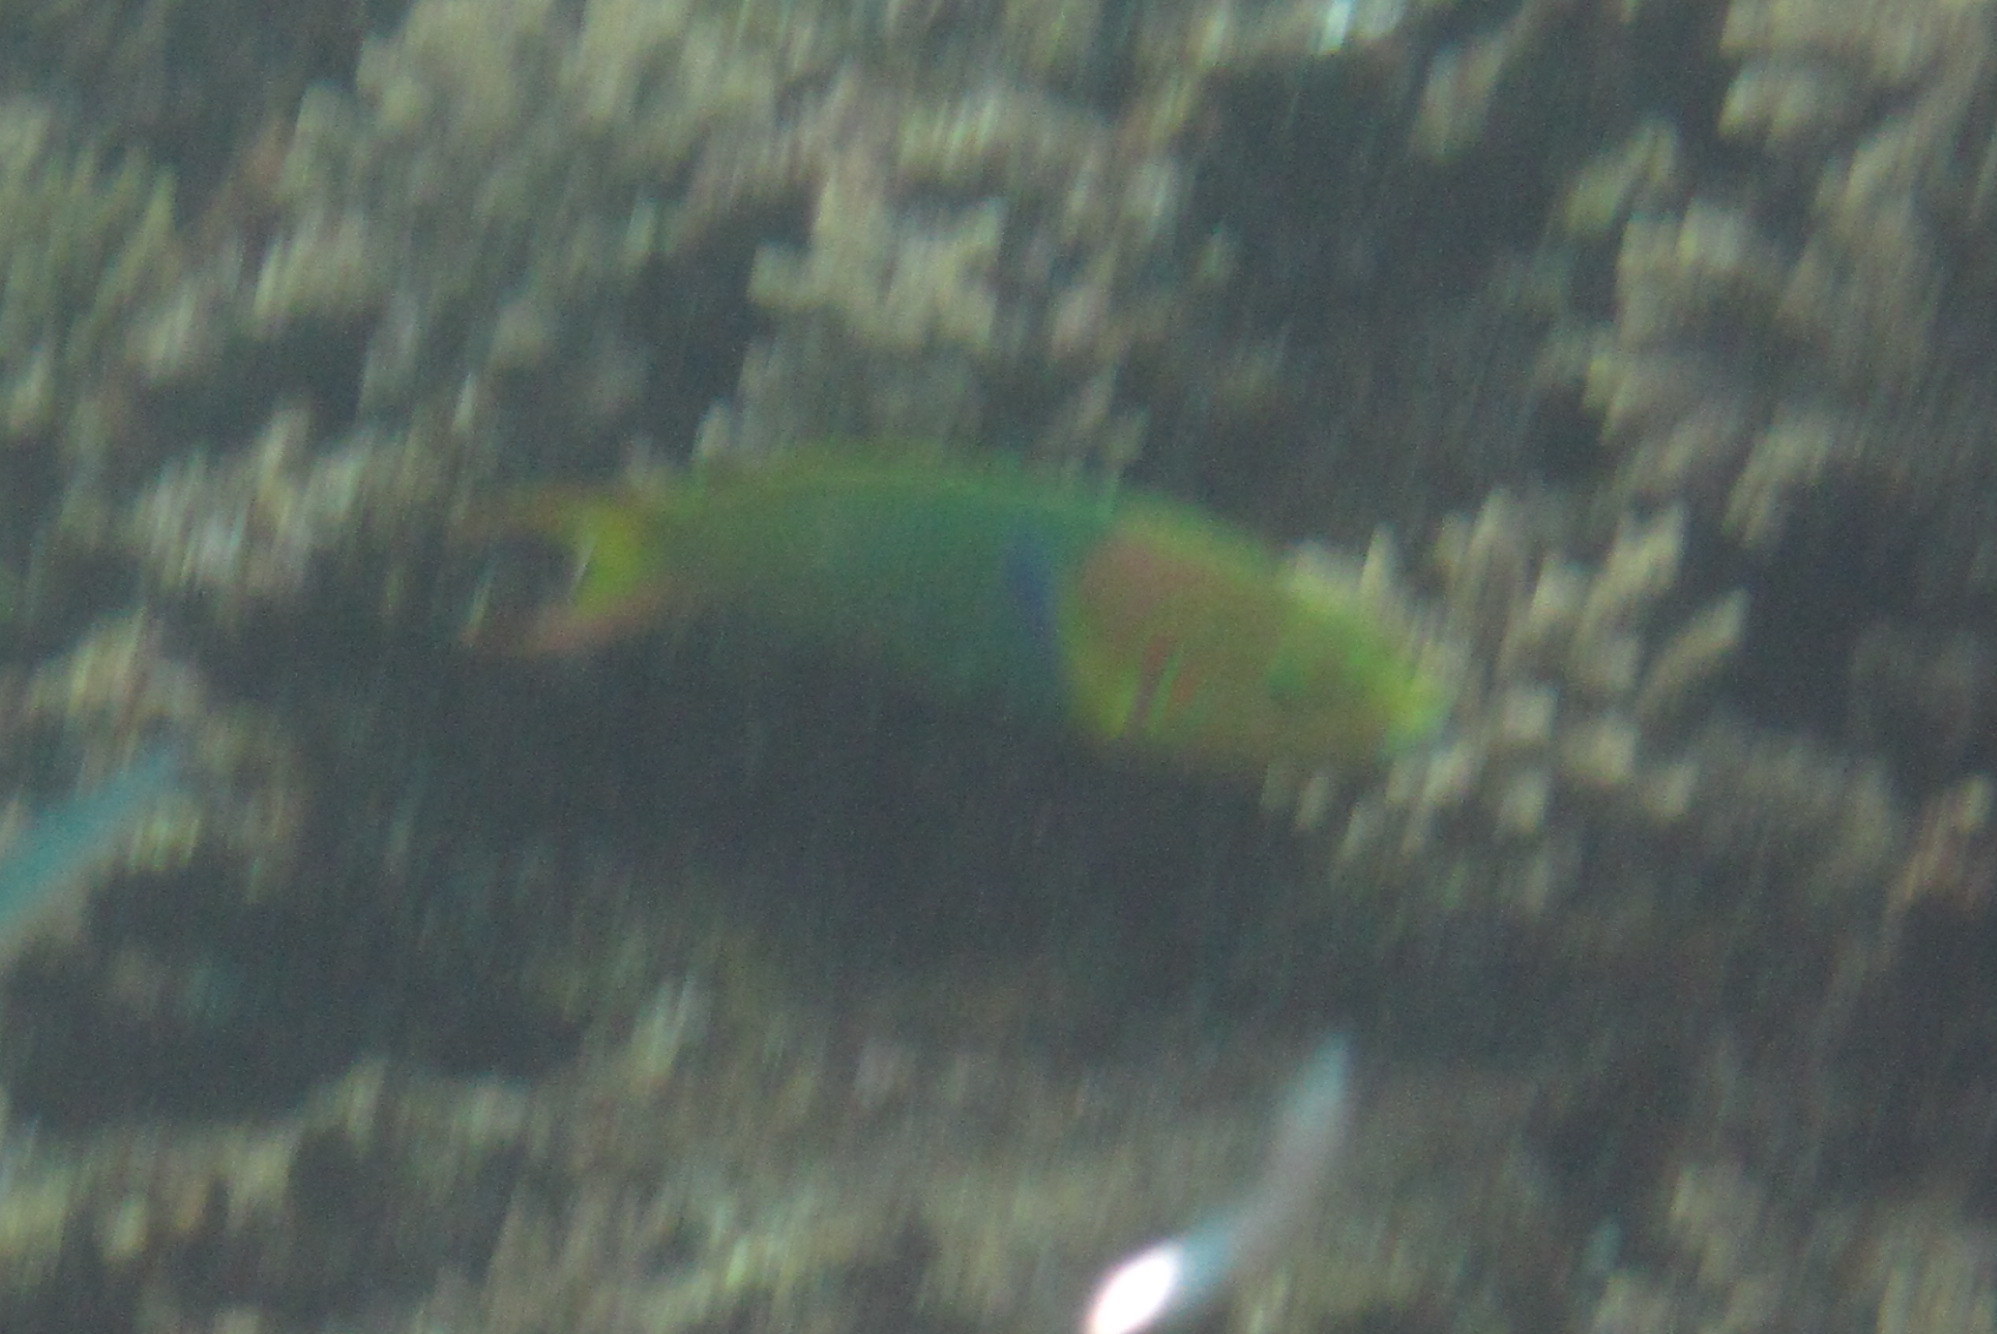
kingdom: Animalia
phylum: Chordata
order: Perciformes
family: Labridae
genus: Thalassoma
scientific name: Thalassoma lutescens
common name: Green moon wrasse
